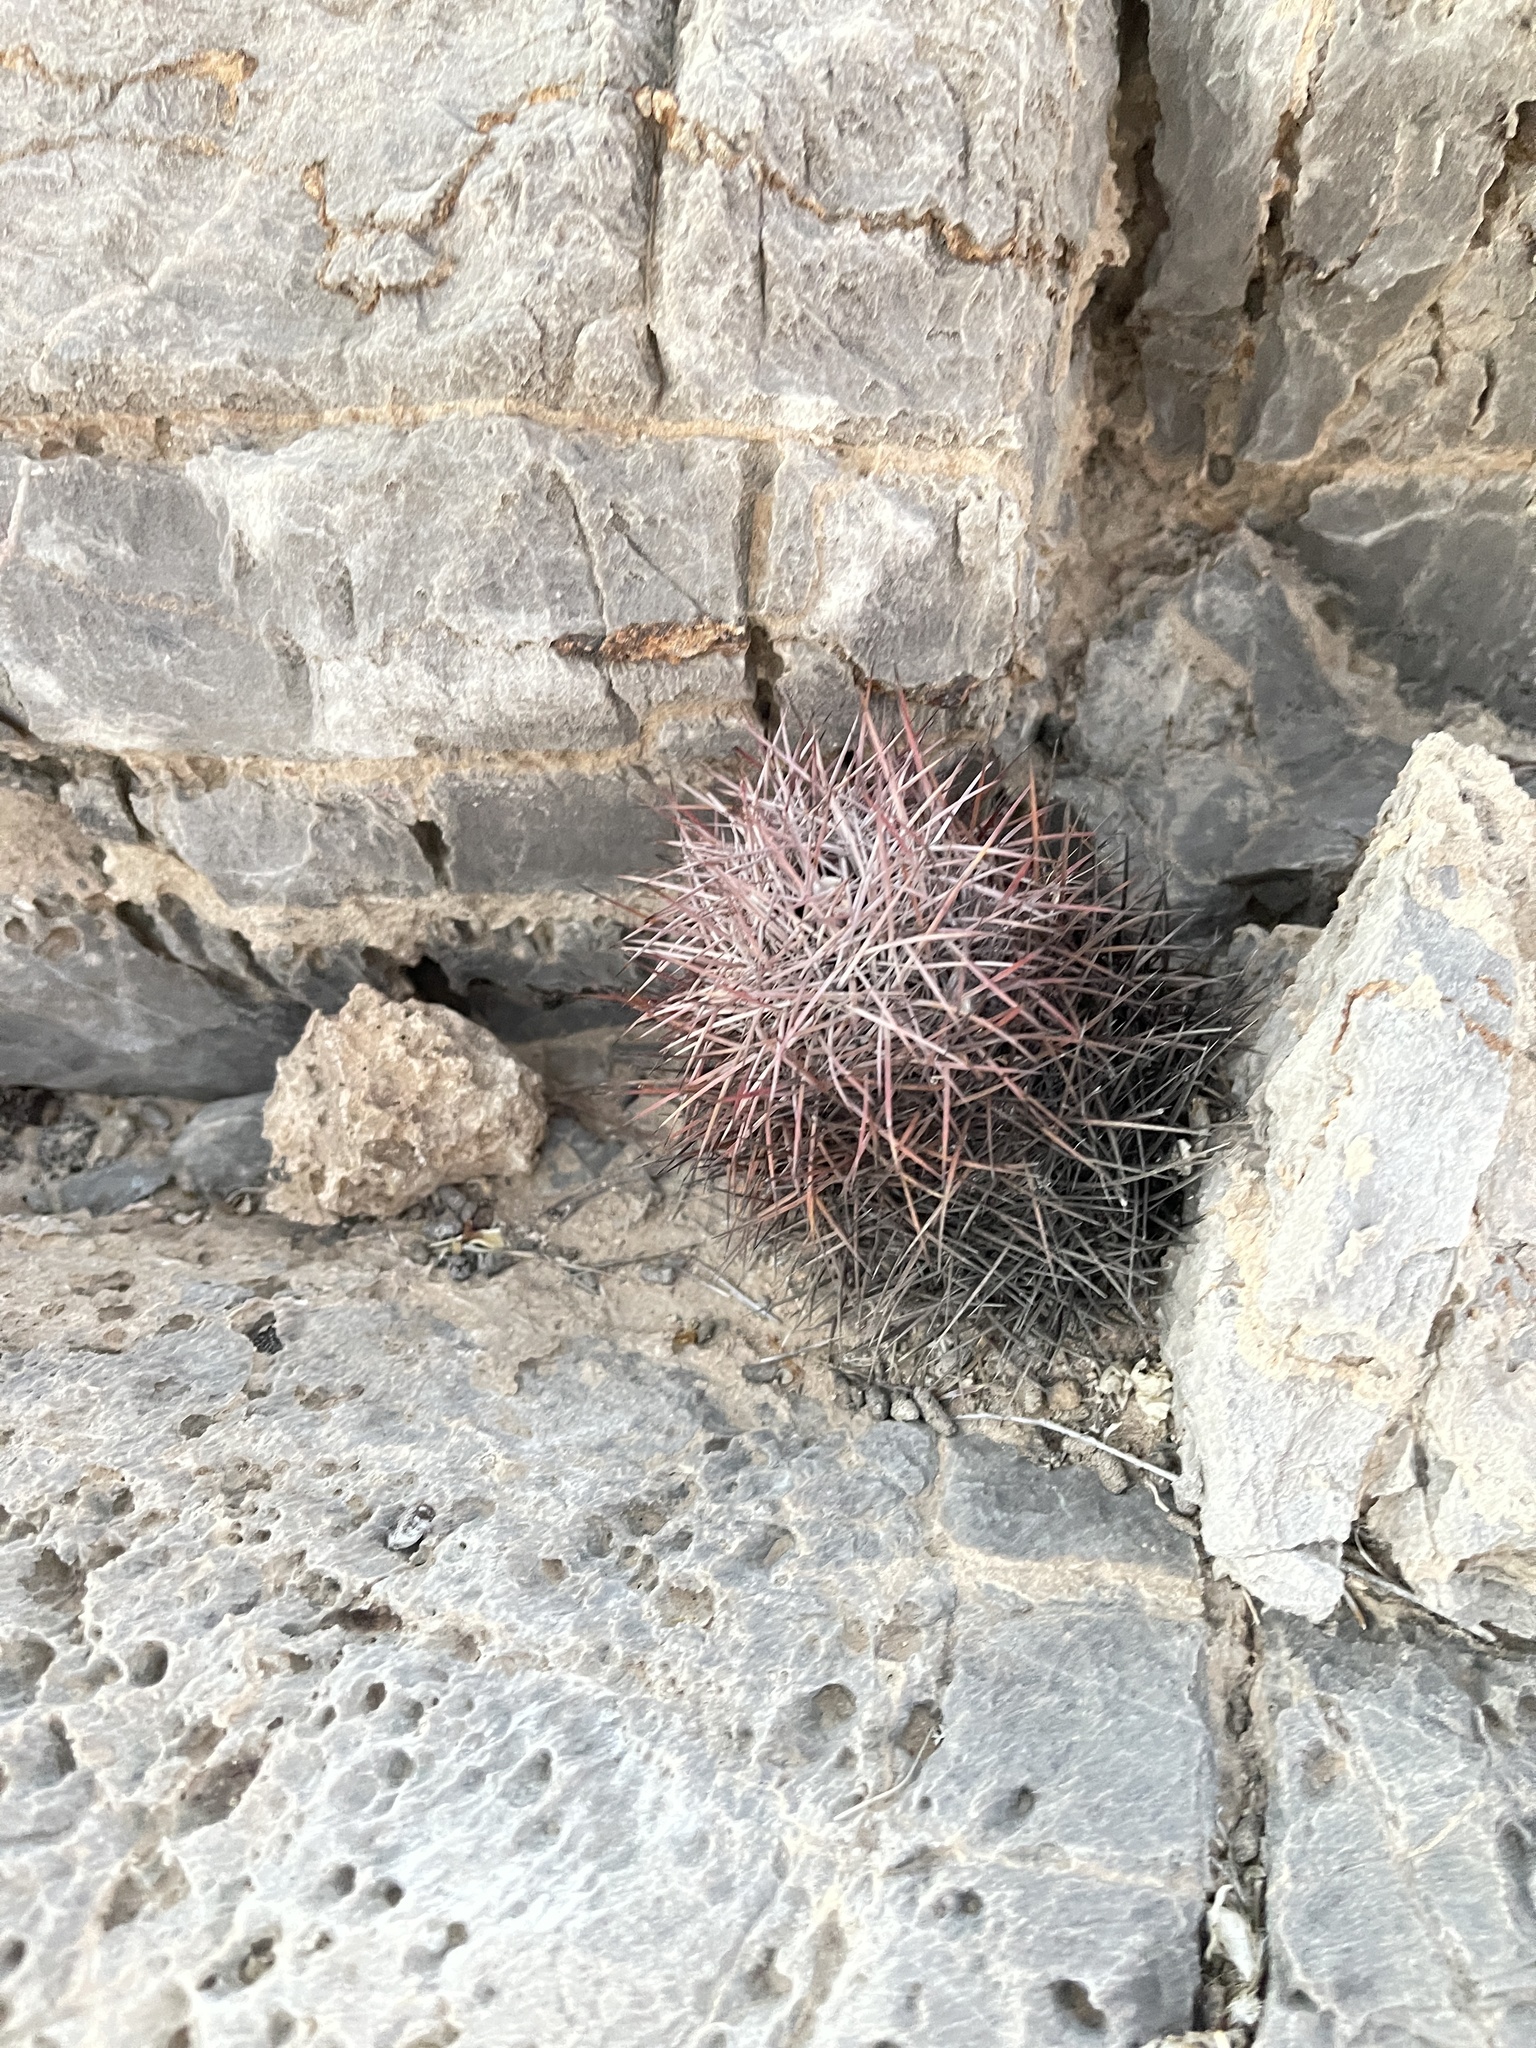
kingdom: Plantae
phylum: Tracheophyta
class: Magnoliopsida
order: Caryophyllales
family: Cactaceae
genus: Sclerocactus
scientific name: Sclerocactus johnsonii
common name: Eight-spine fishhook cactus
